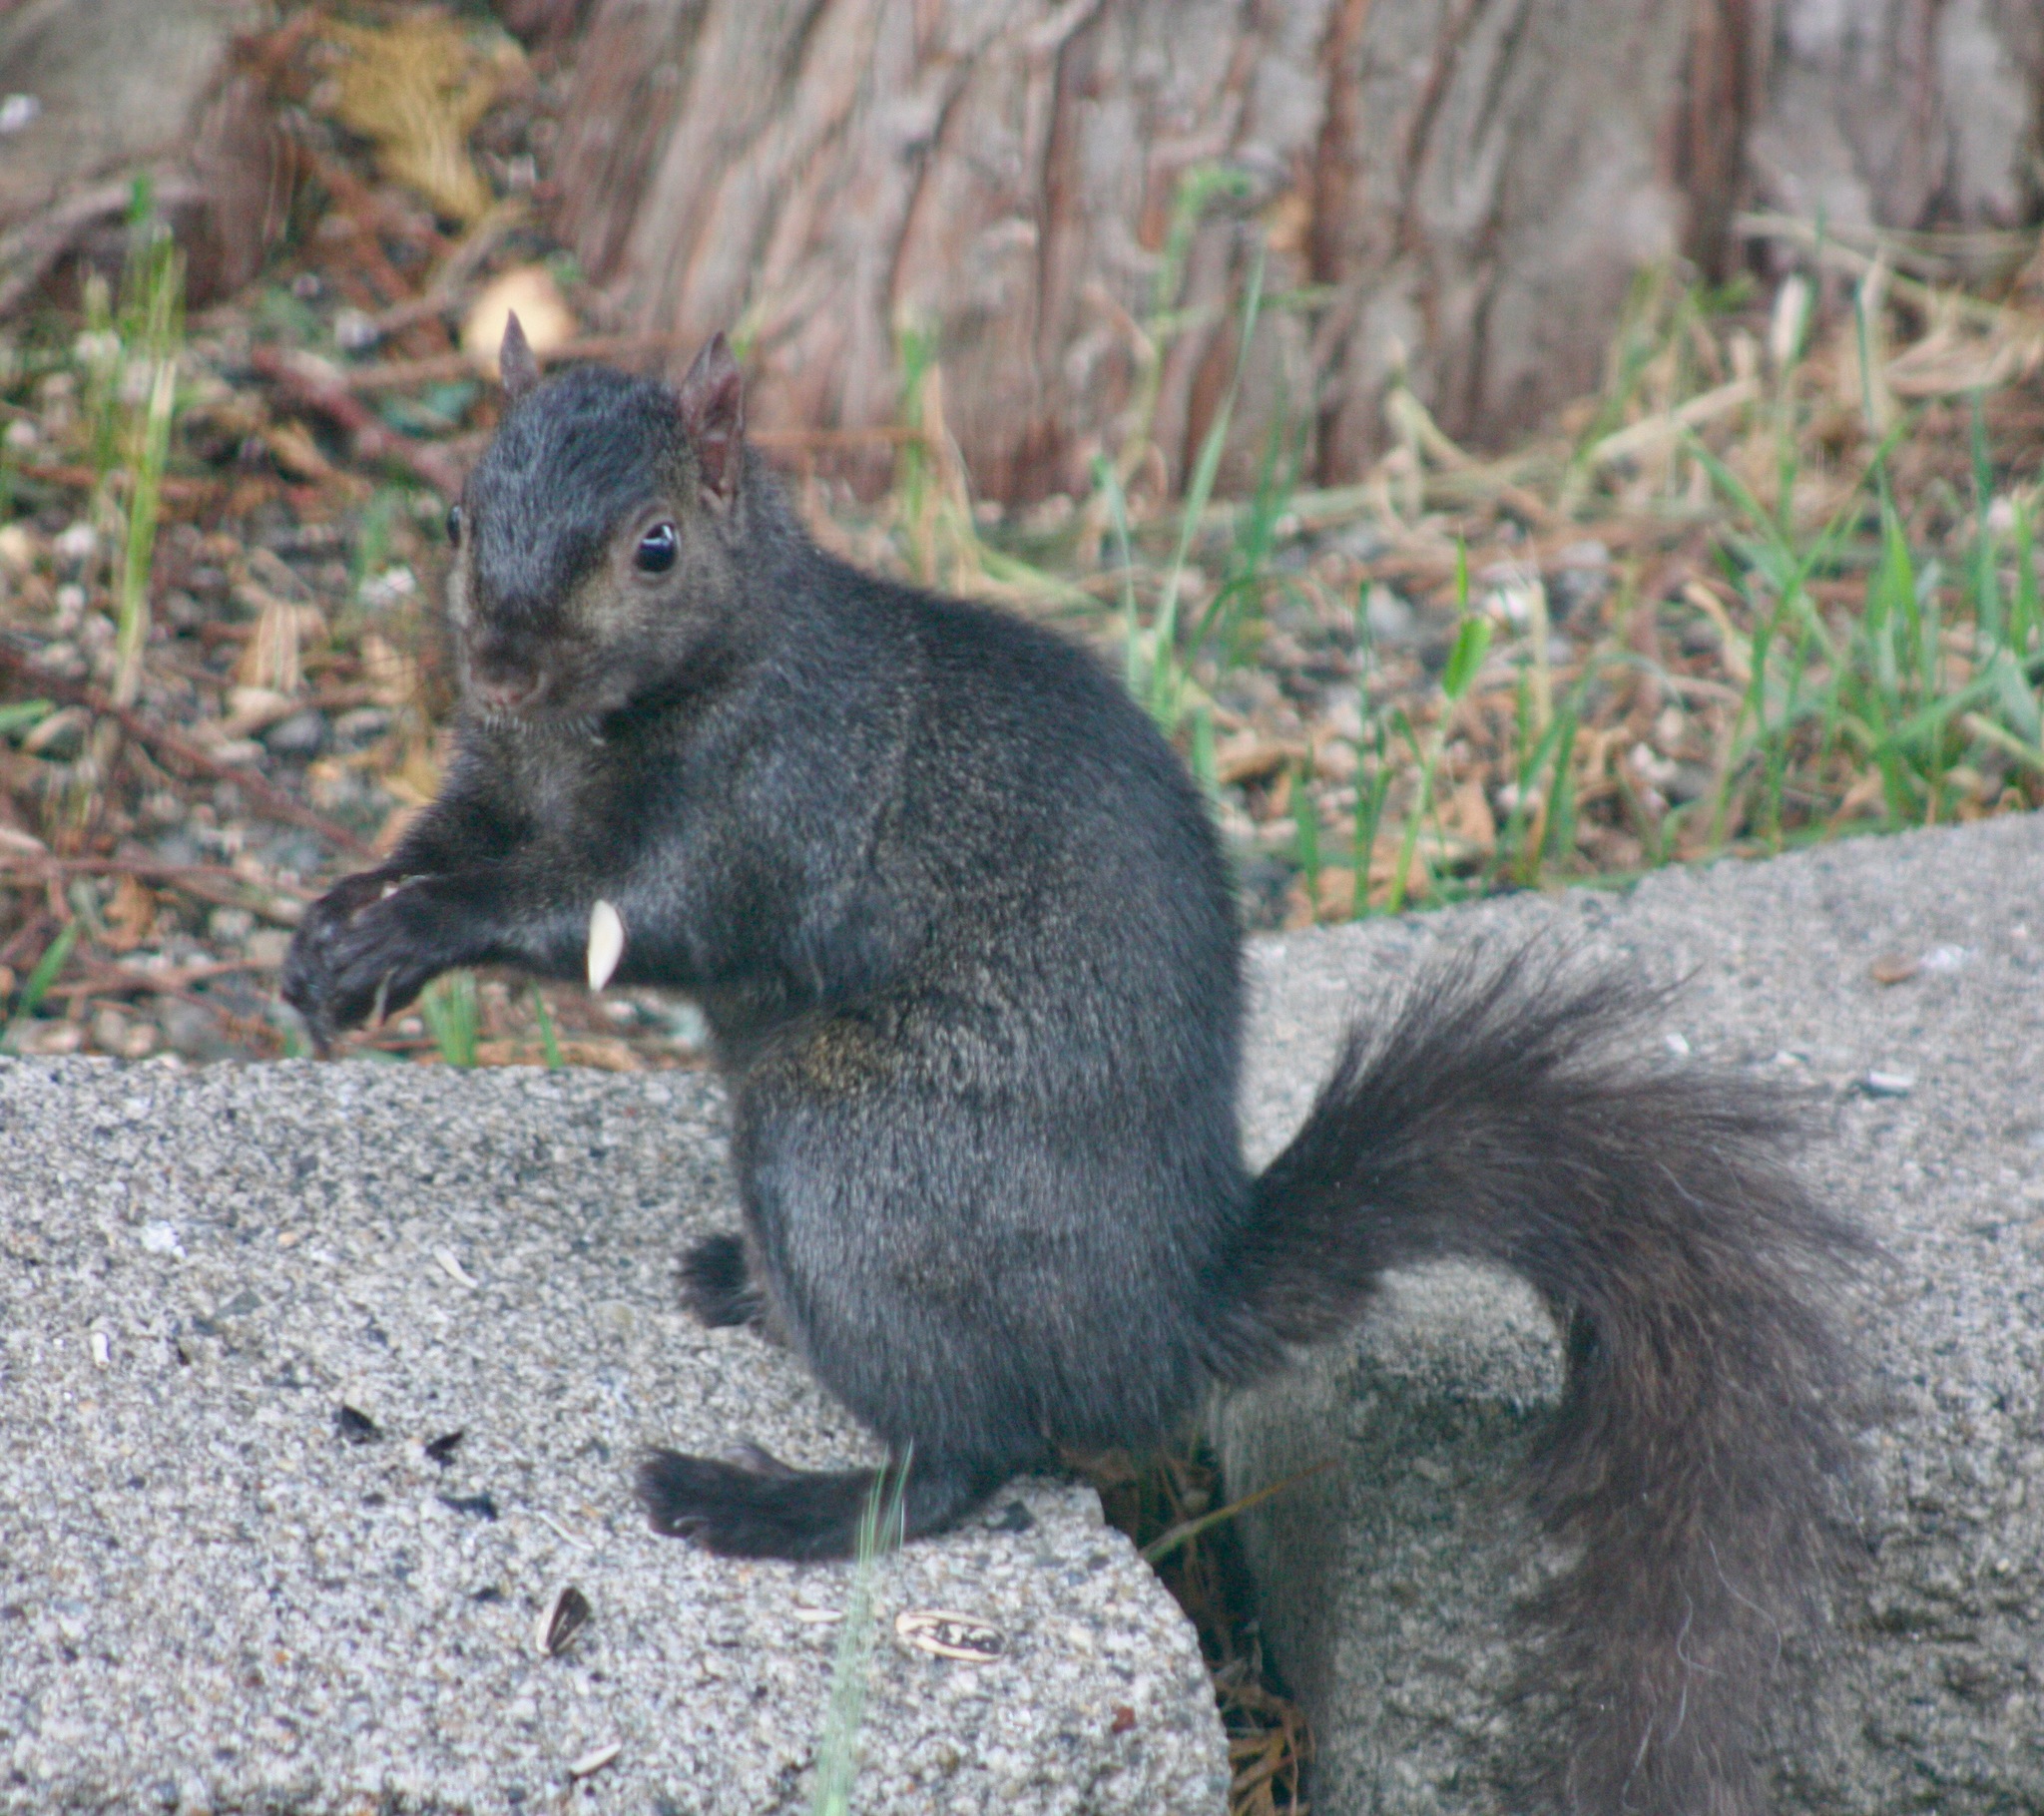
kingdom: Animalia
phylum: Chordata
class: Mammalia
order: Rodentia
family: Sciuridae
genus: Sciurus
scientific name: Sciurus carolinensis
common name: Eastern gray squirrel
